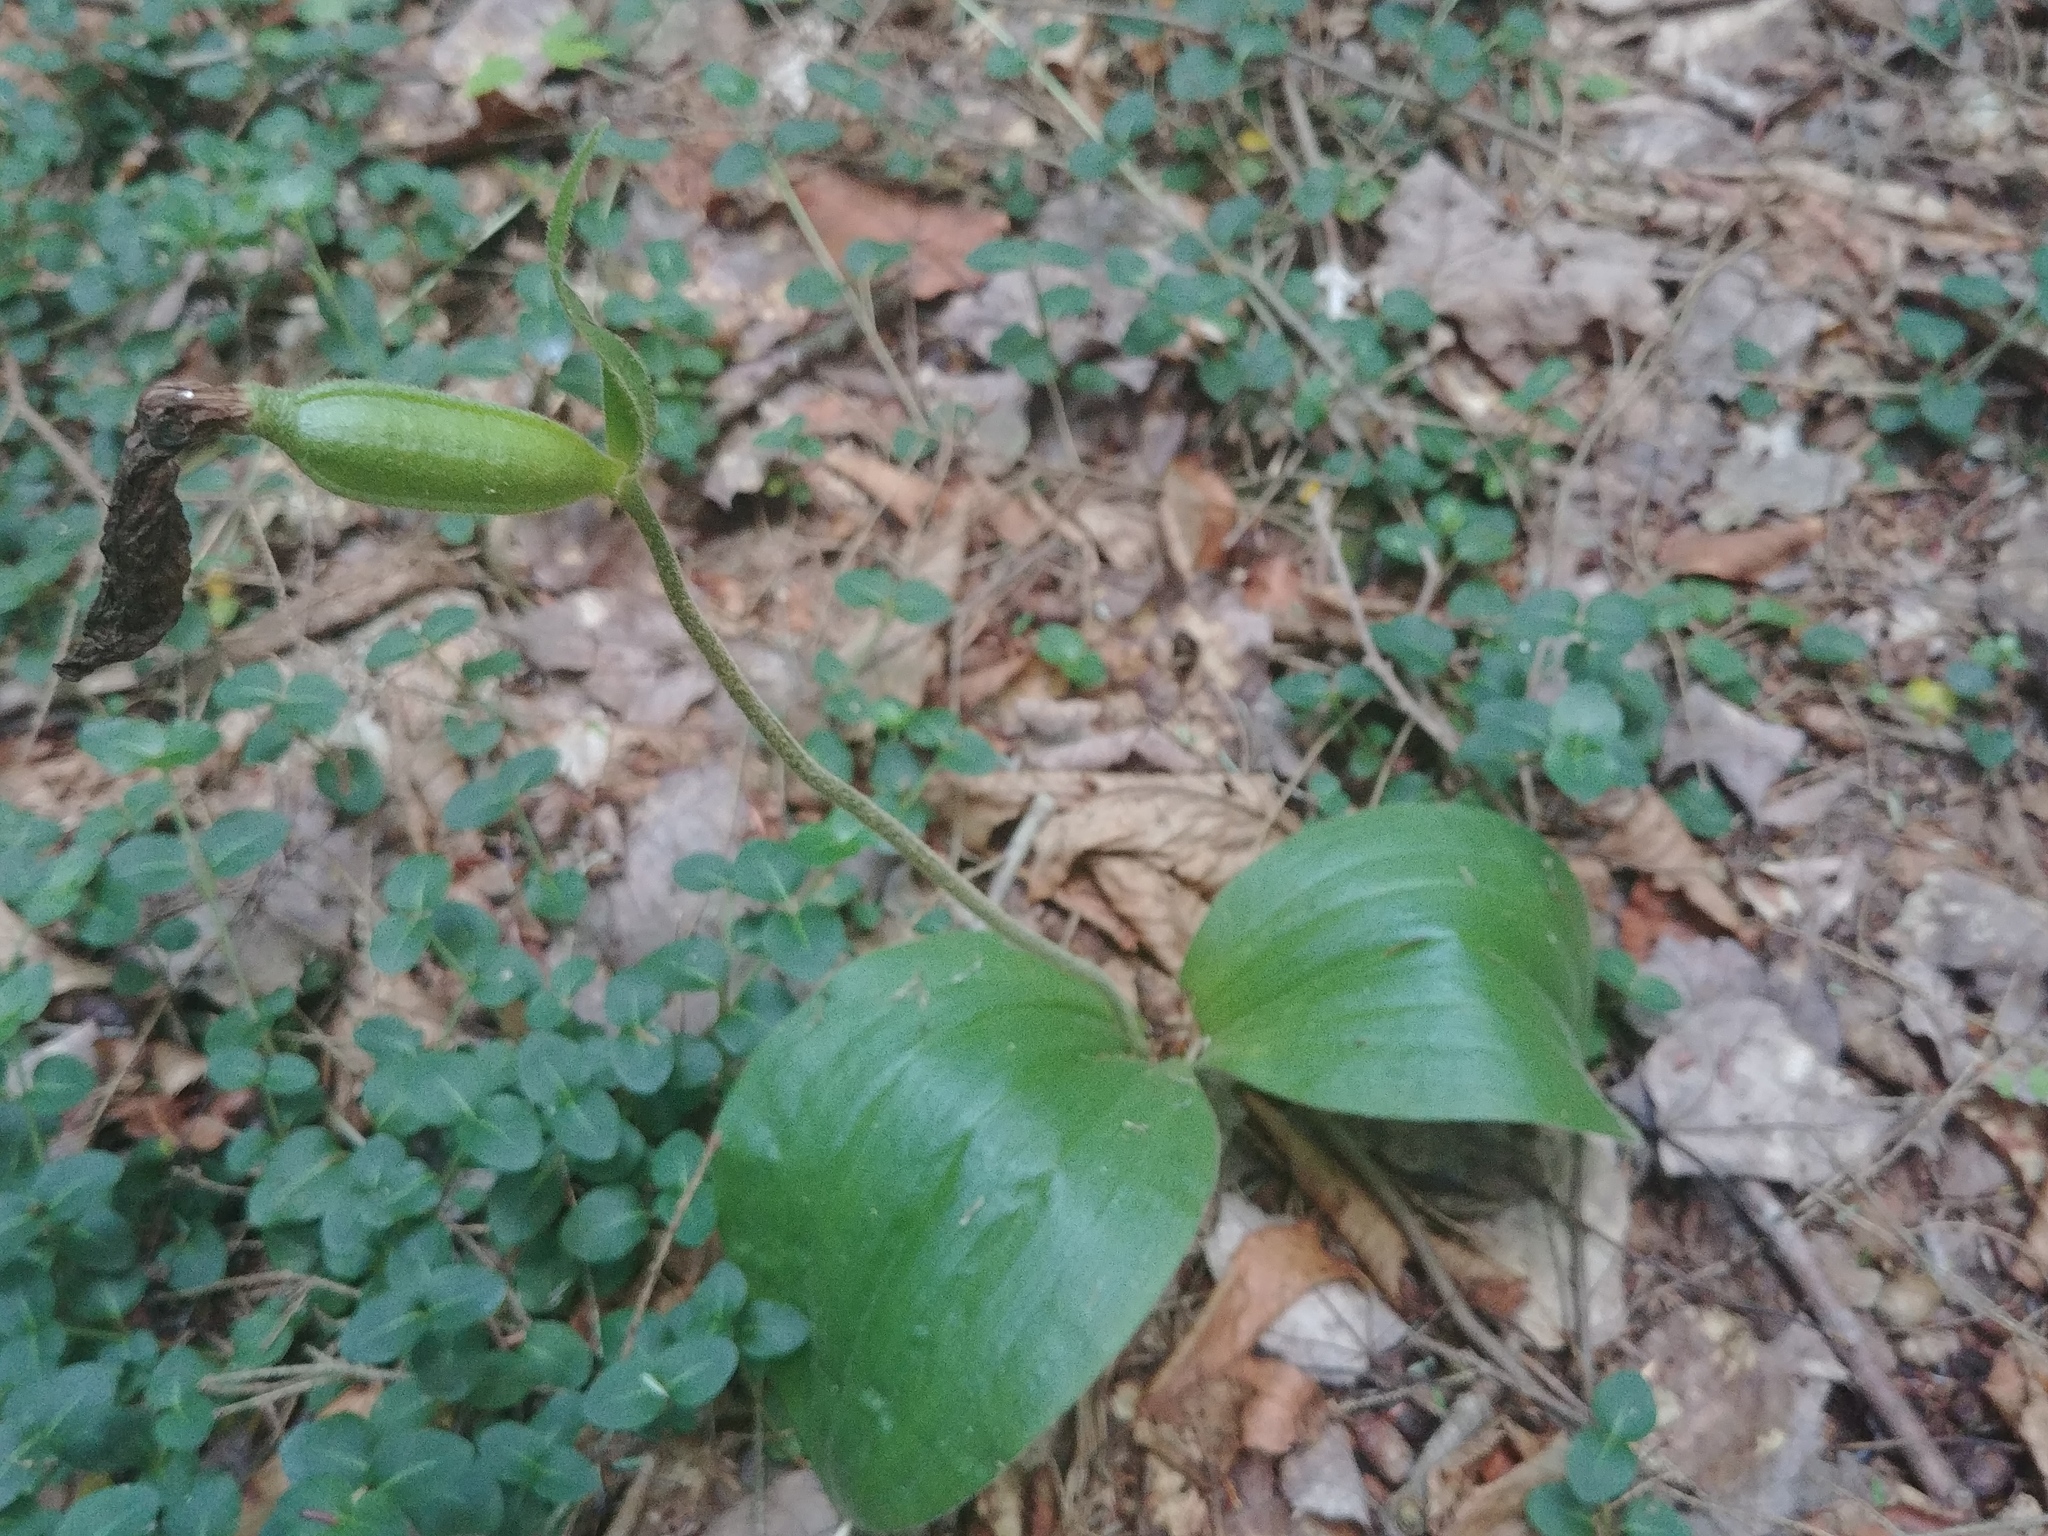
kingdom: Plantae
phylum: Tracheophyta
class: Liliopsida
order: Asparagales
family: Orchidaceae
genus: Cypripedium
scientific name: Cypripedium acaule
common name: Pink lady's-slipper
